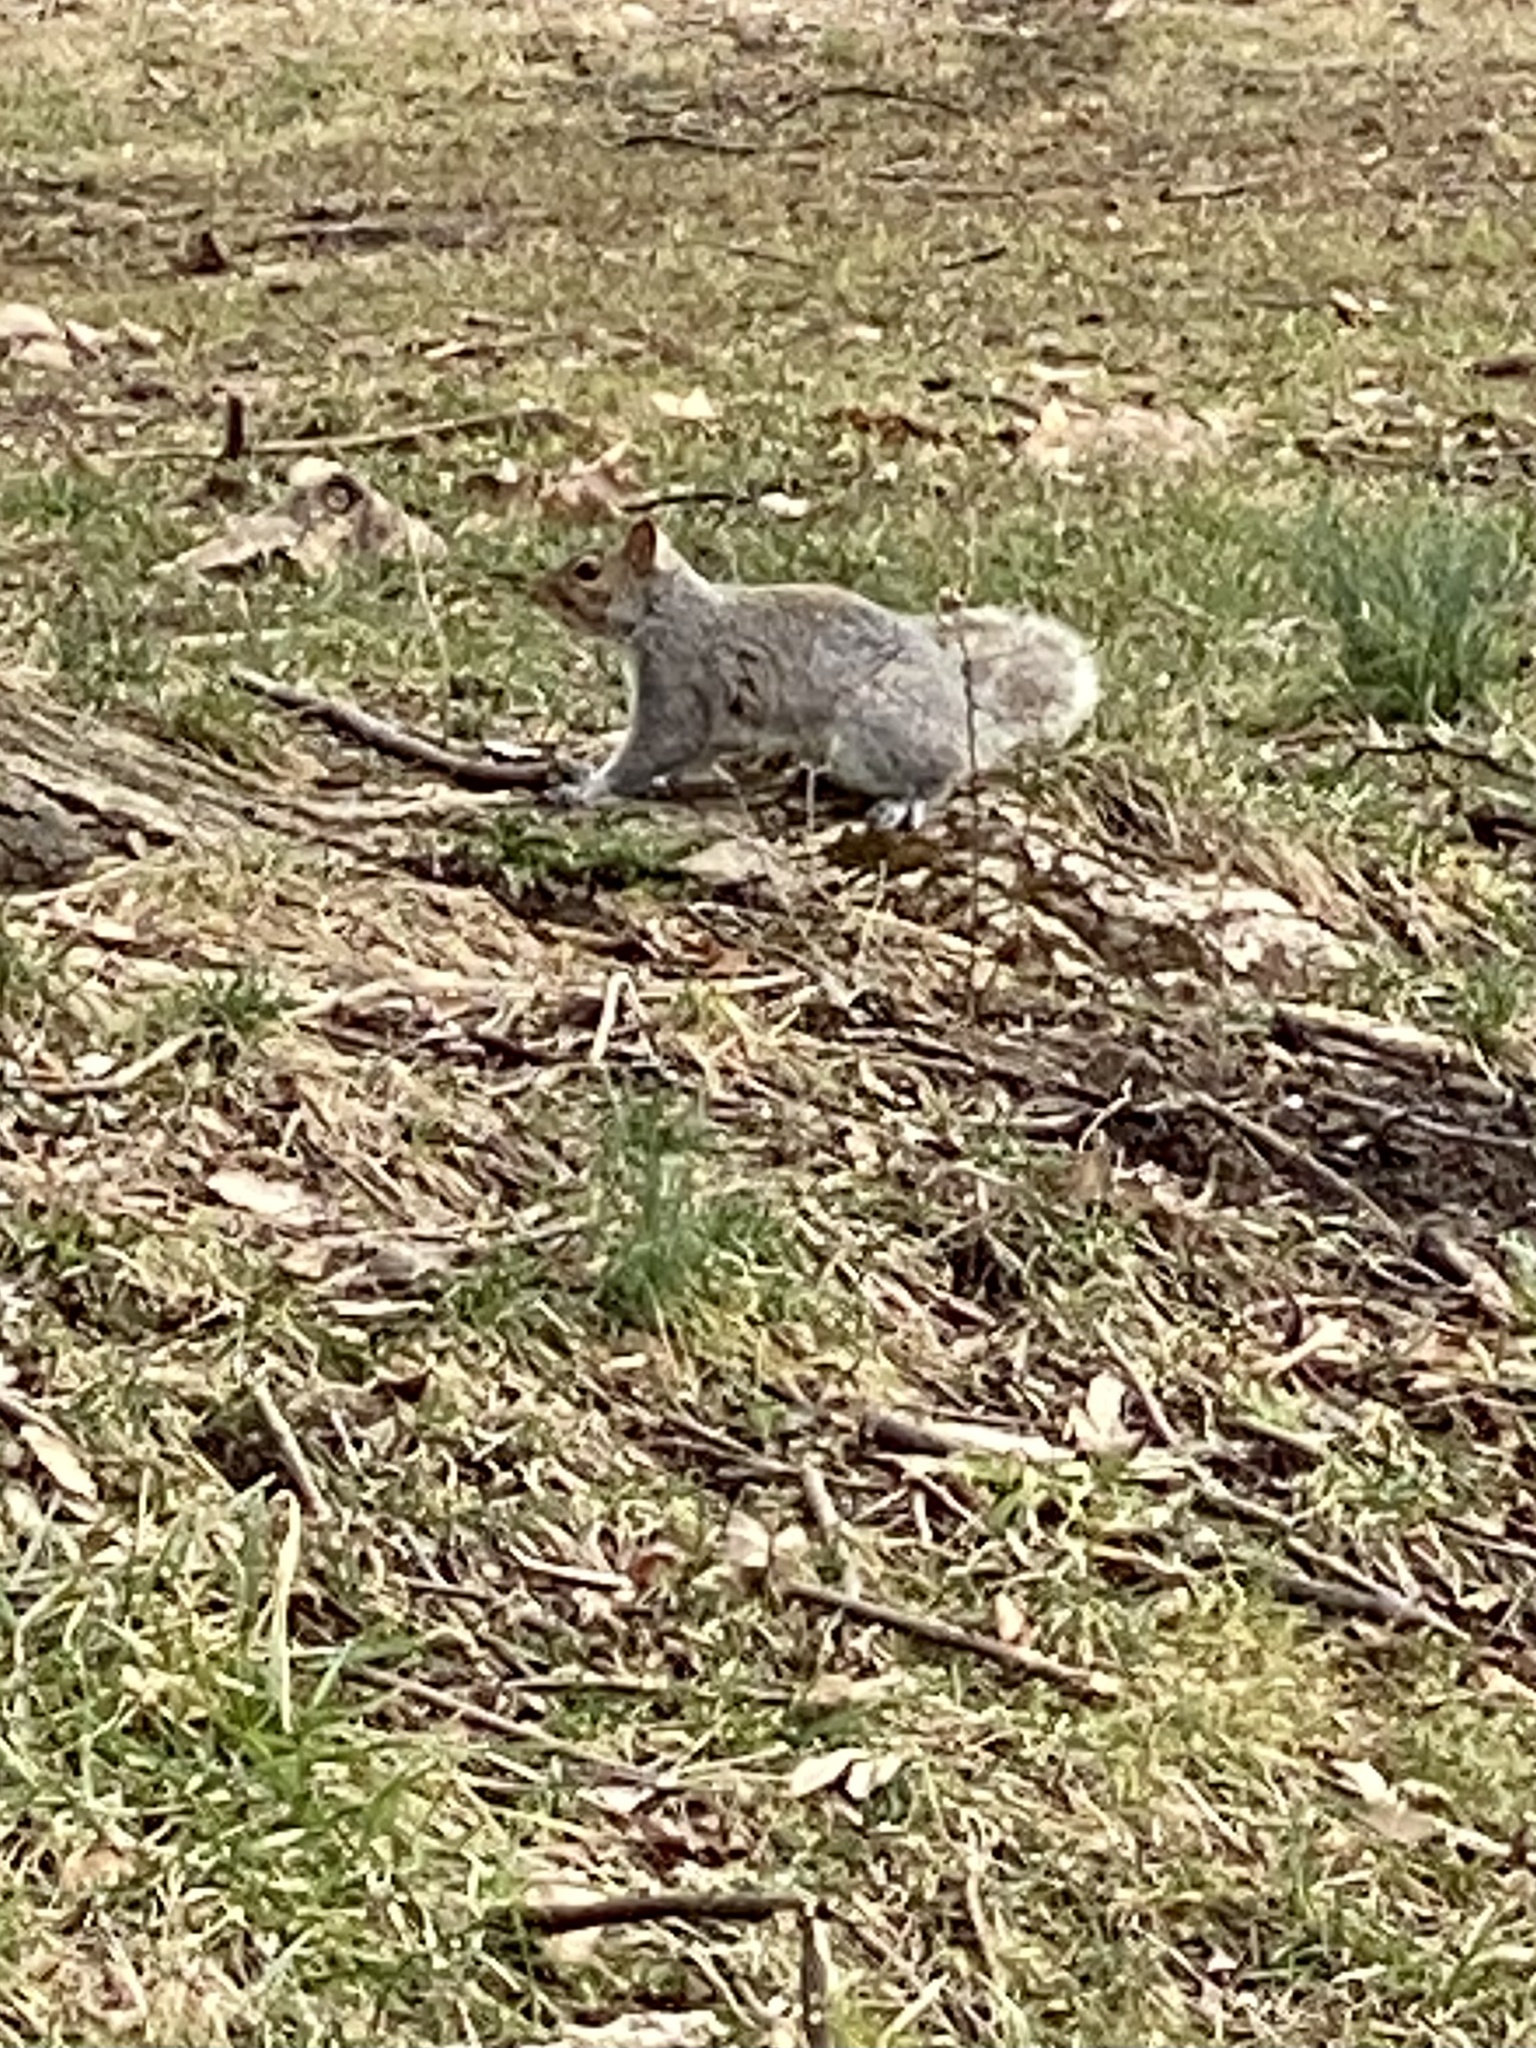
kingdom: Animalia
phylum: Chordata
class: Mammalia
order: Rodentia
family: Sciuridae
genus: Sciurus
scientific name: Sciurus carolinensis
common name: Eastern gray squirrel
